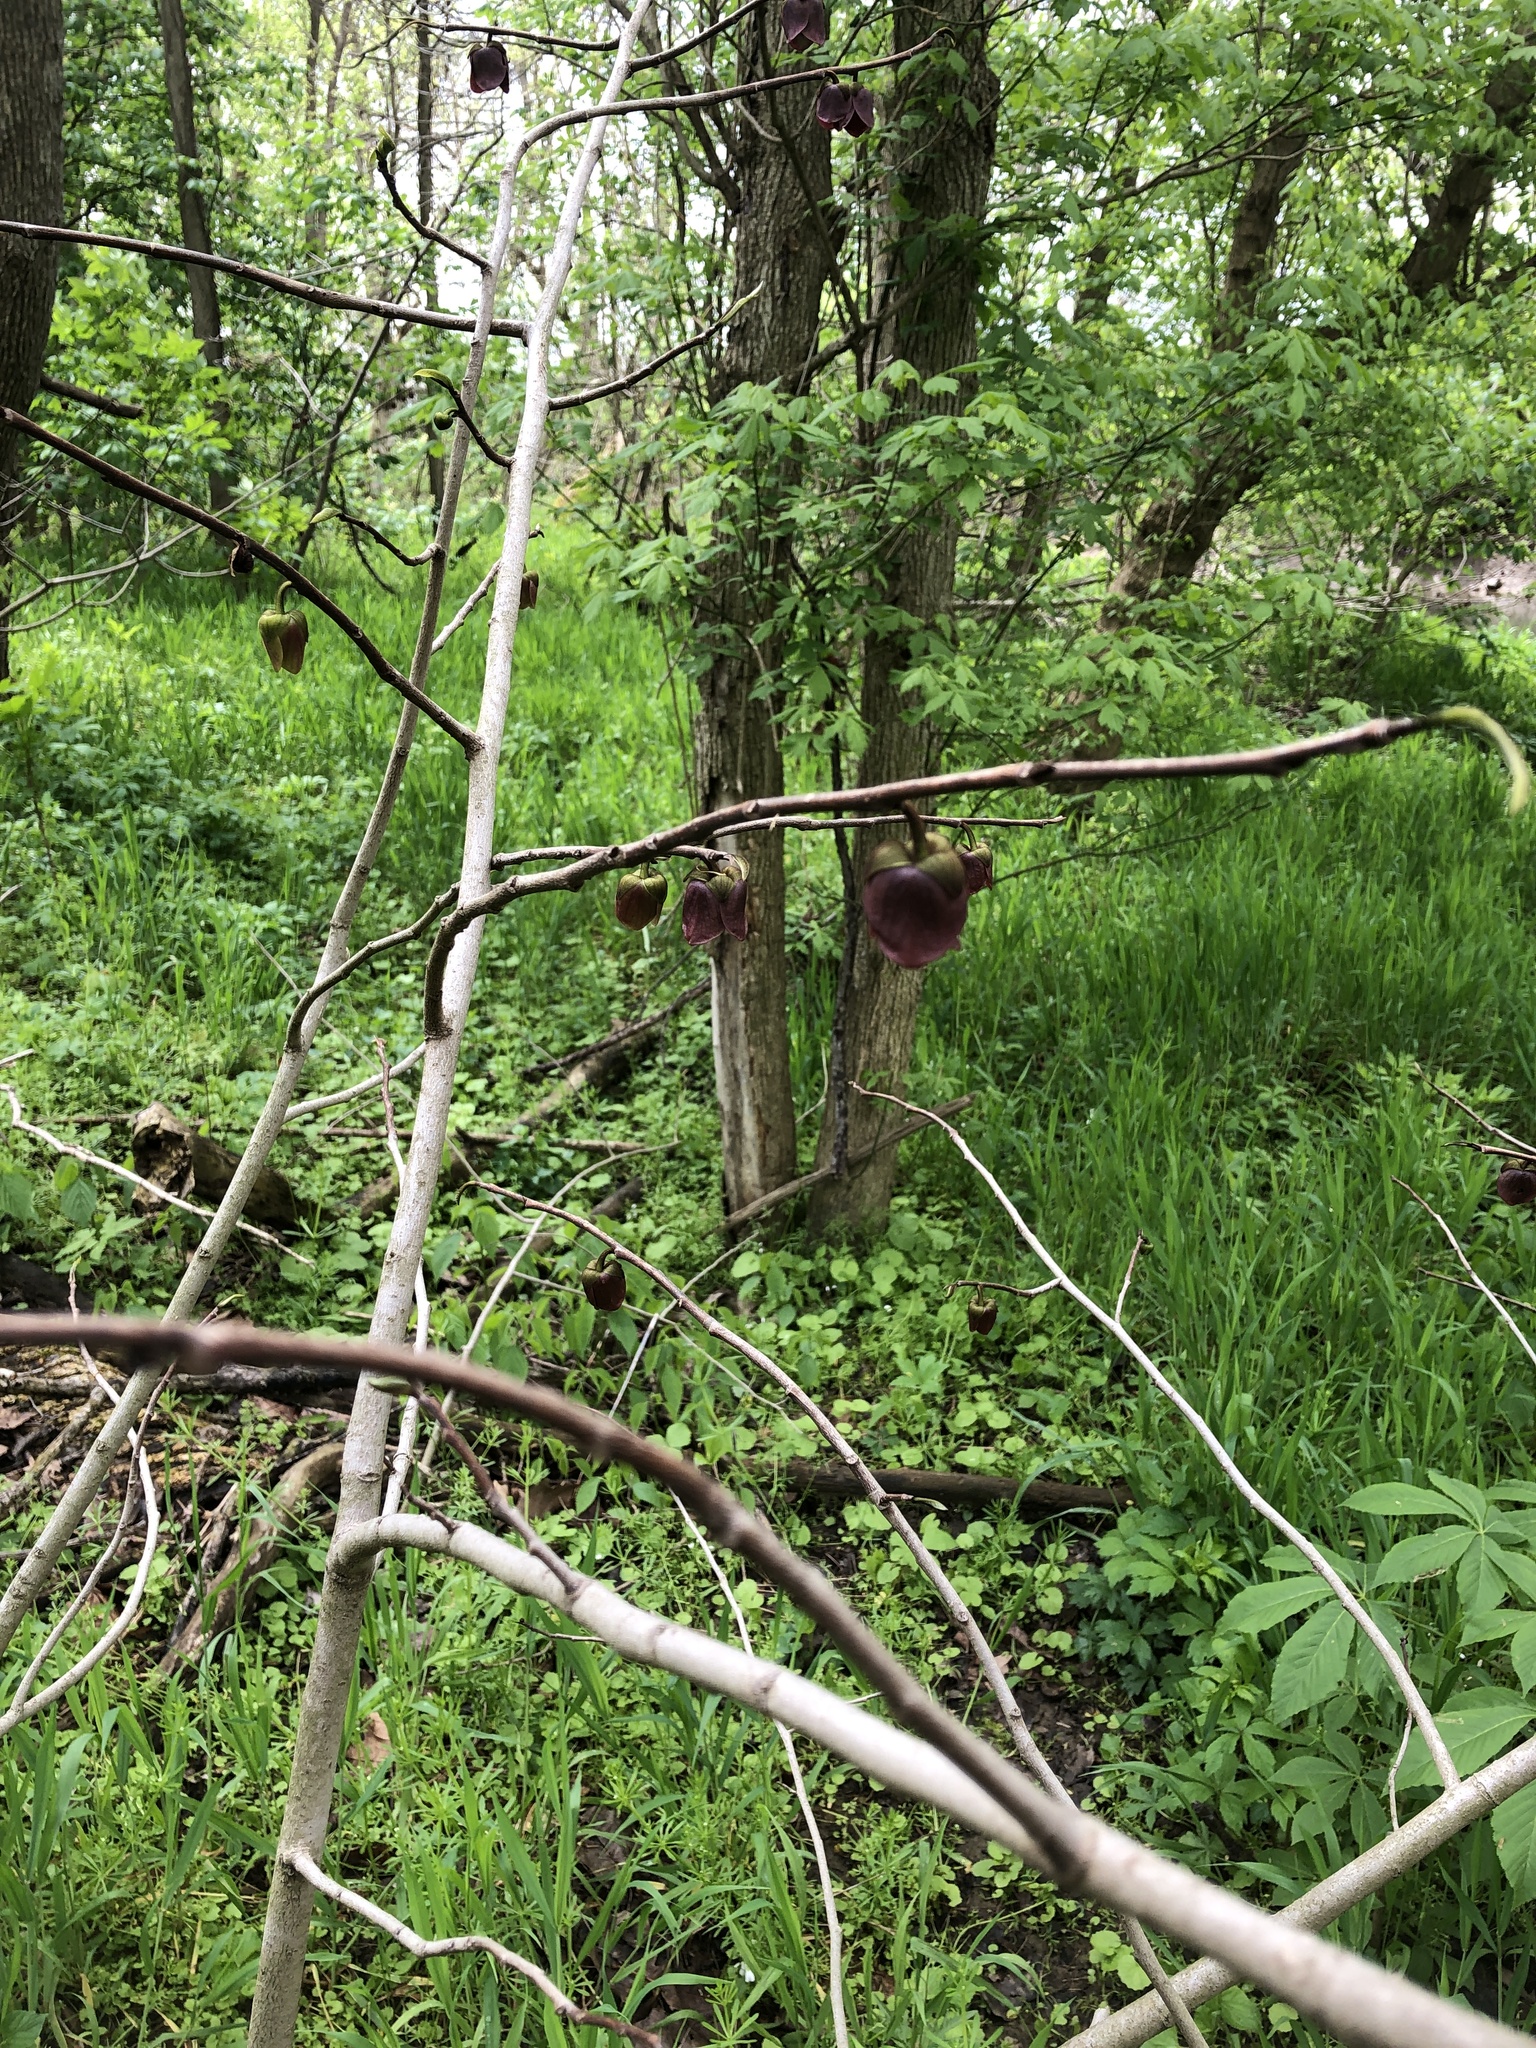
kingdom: Plantae
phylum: Tracheophyta
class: Magnoliopsida
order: Magnoliales
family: Annonaceae
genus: Asimina
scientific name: Asimina triloba
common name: Dog-banana
